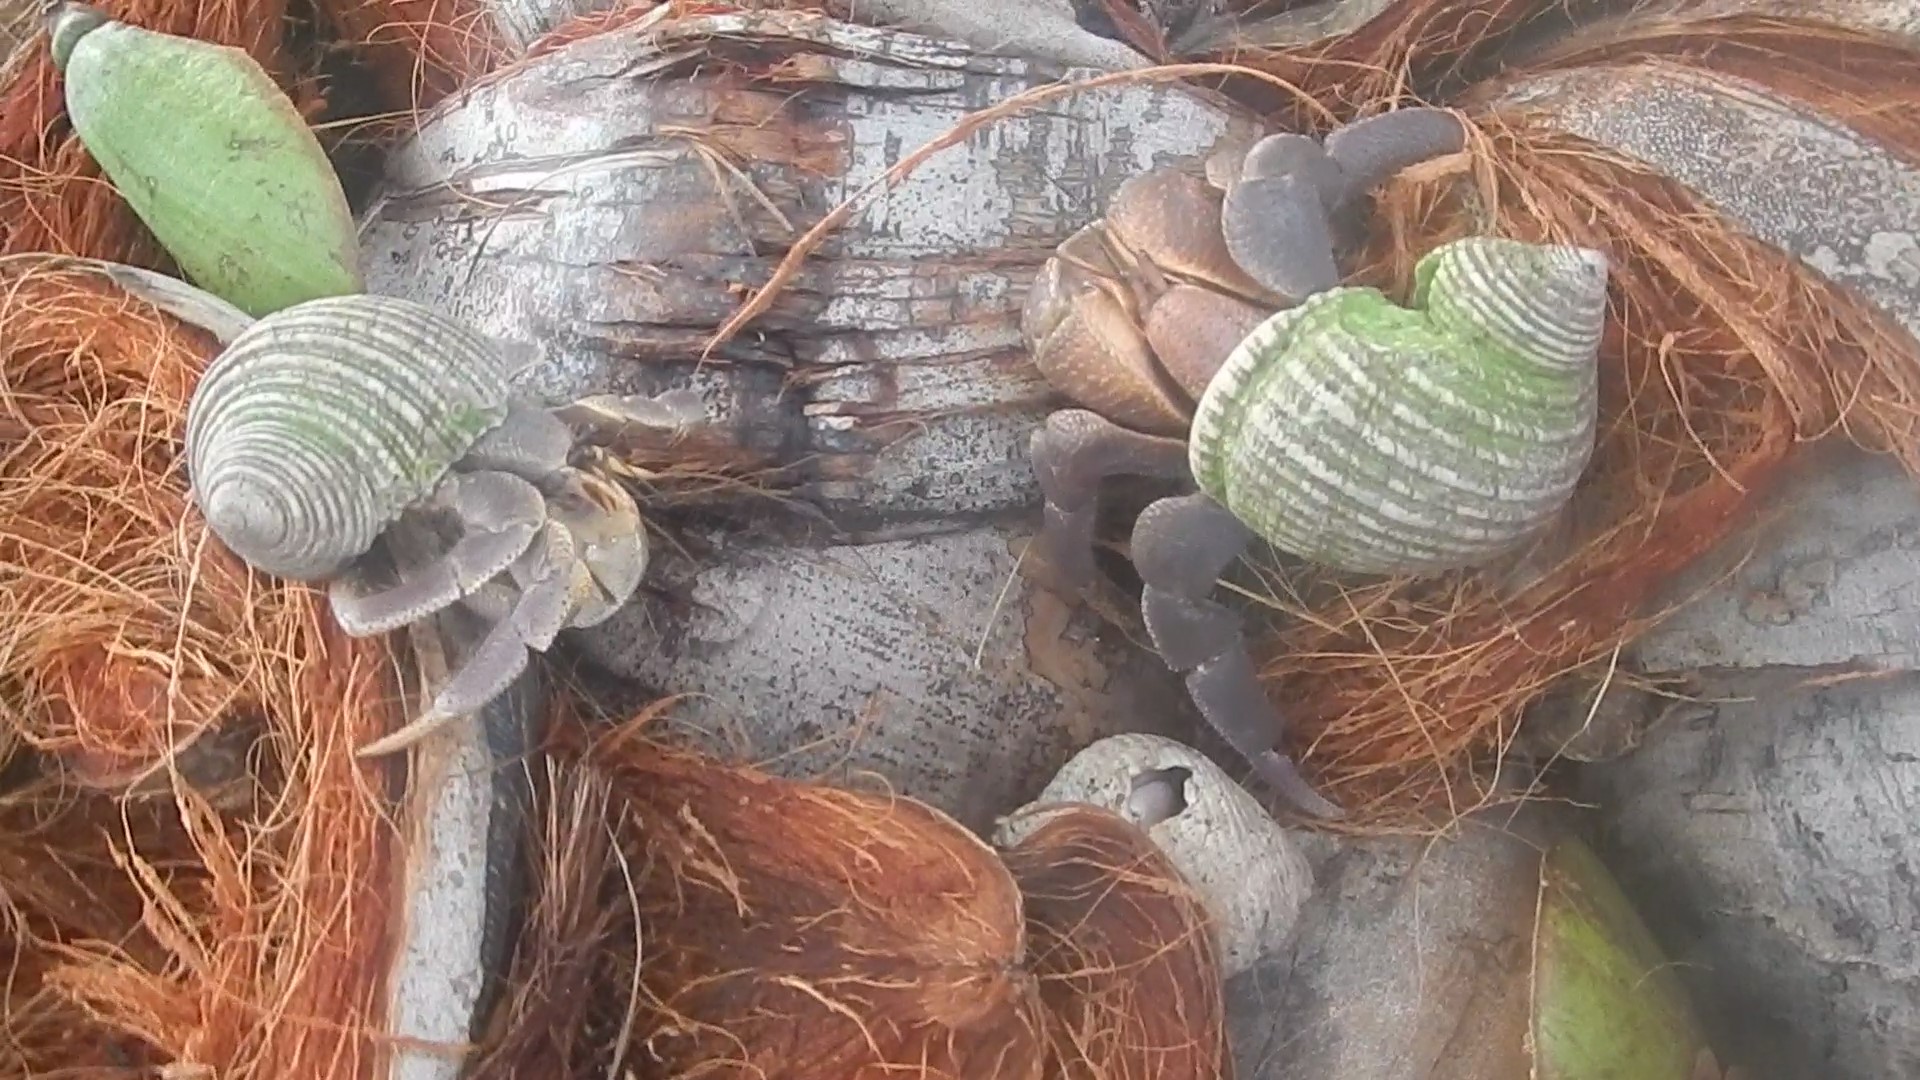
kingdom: Animalia
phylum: Arthropoda
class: Malacostraca
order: Decapoda
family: Coenobitidae
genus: Coenobita
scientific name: Coenobita brevimanus
